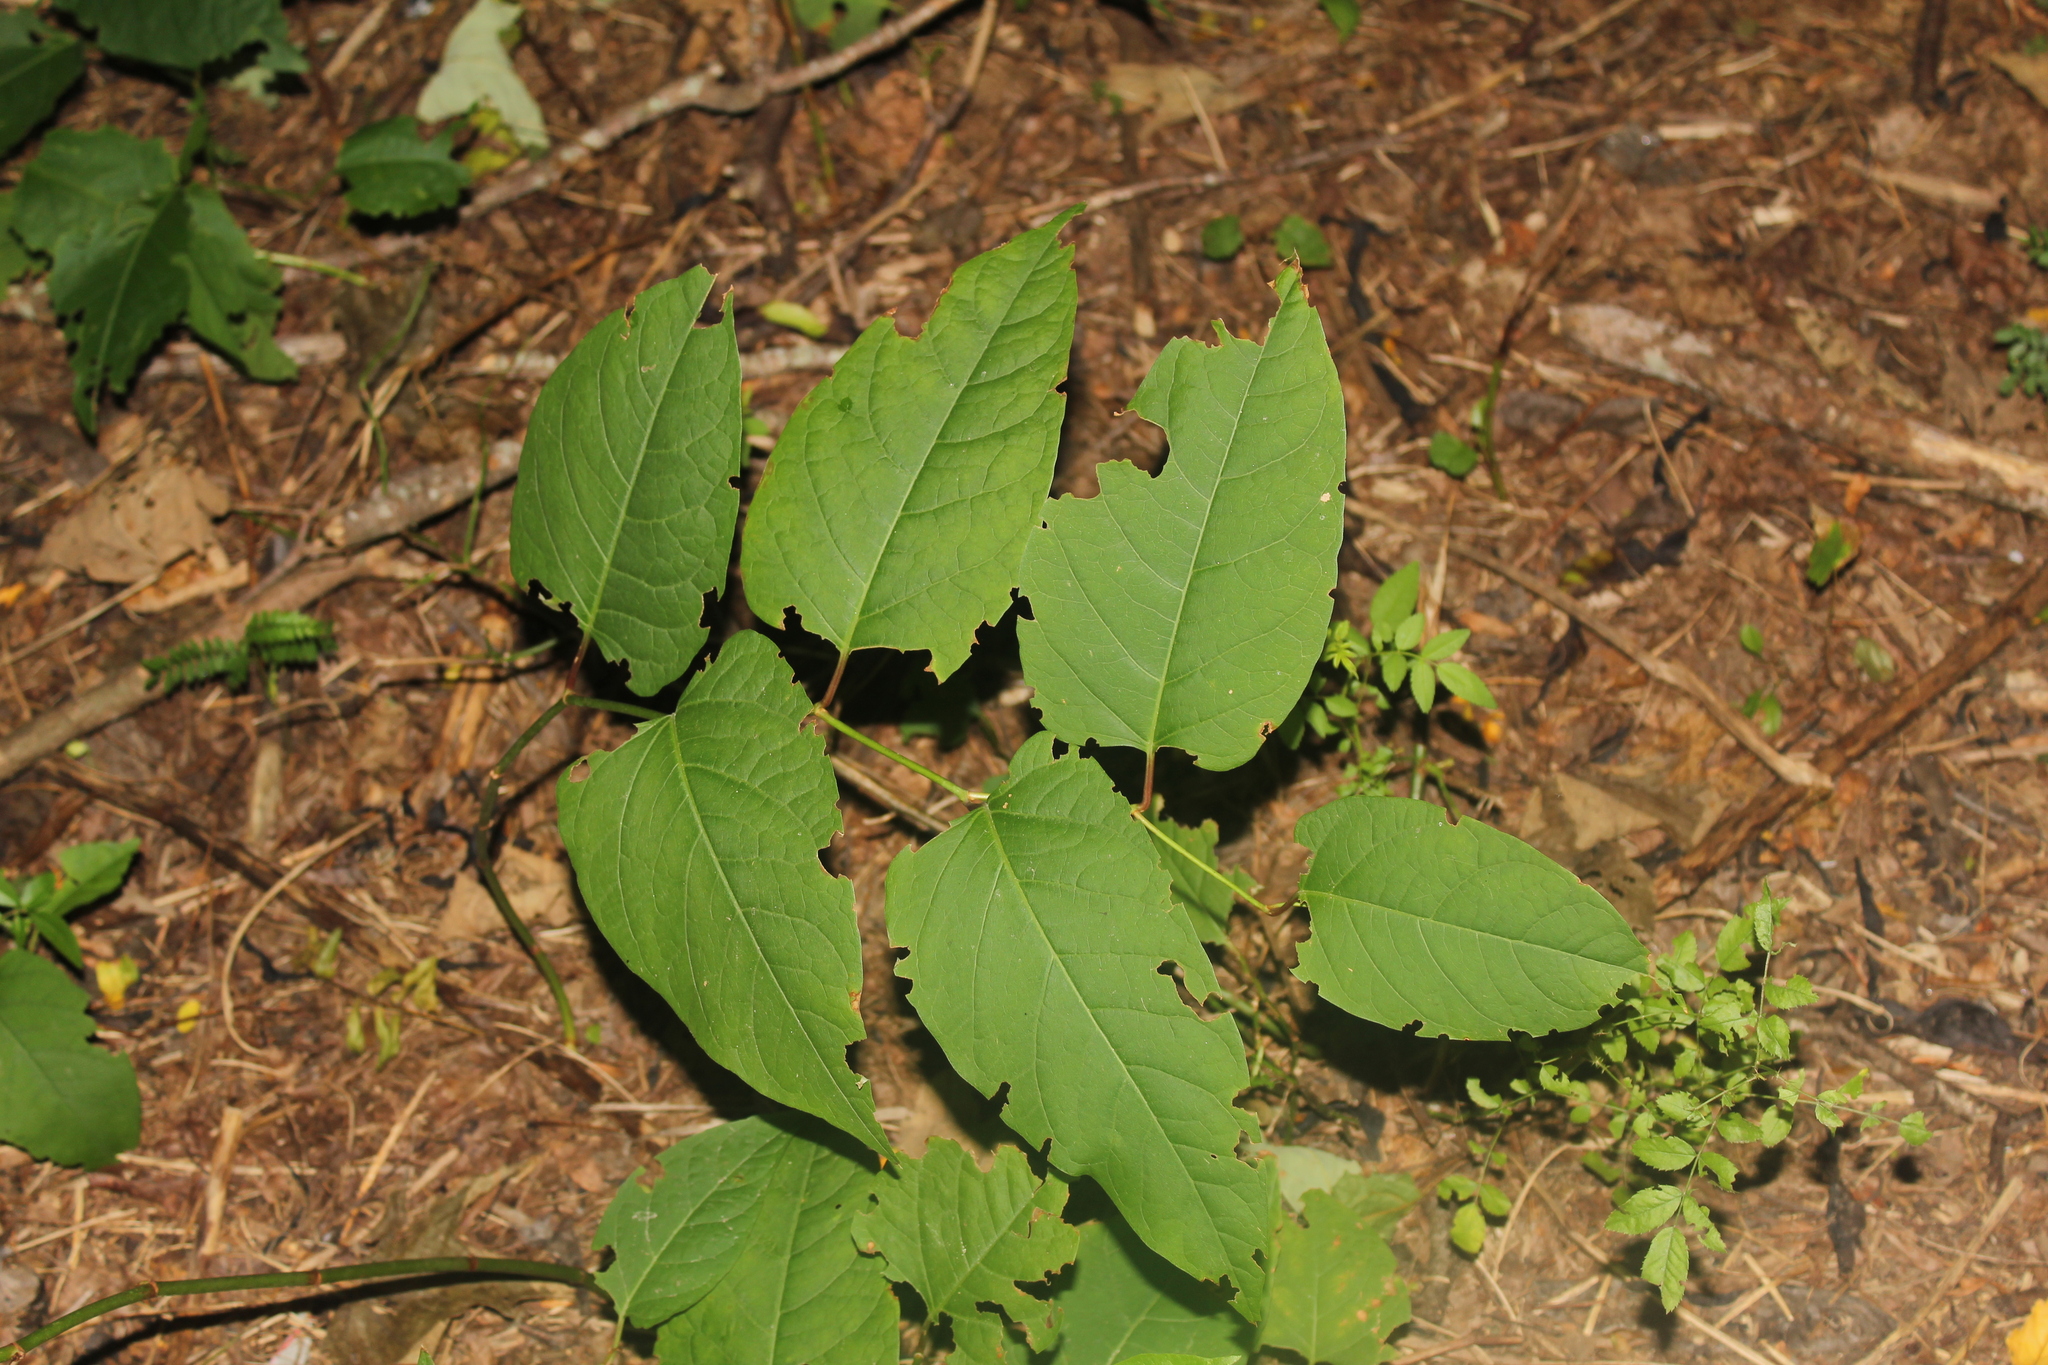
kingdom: Plantae
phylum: Tracheophyta
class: Magnoliopsida
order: Caryophyllales
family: Polygonaceae
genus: Reynoutria
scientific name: Reynoutria japonica
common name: Japanese knotweed
